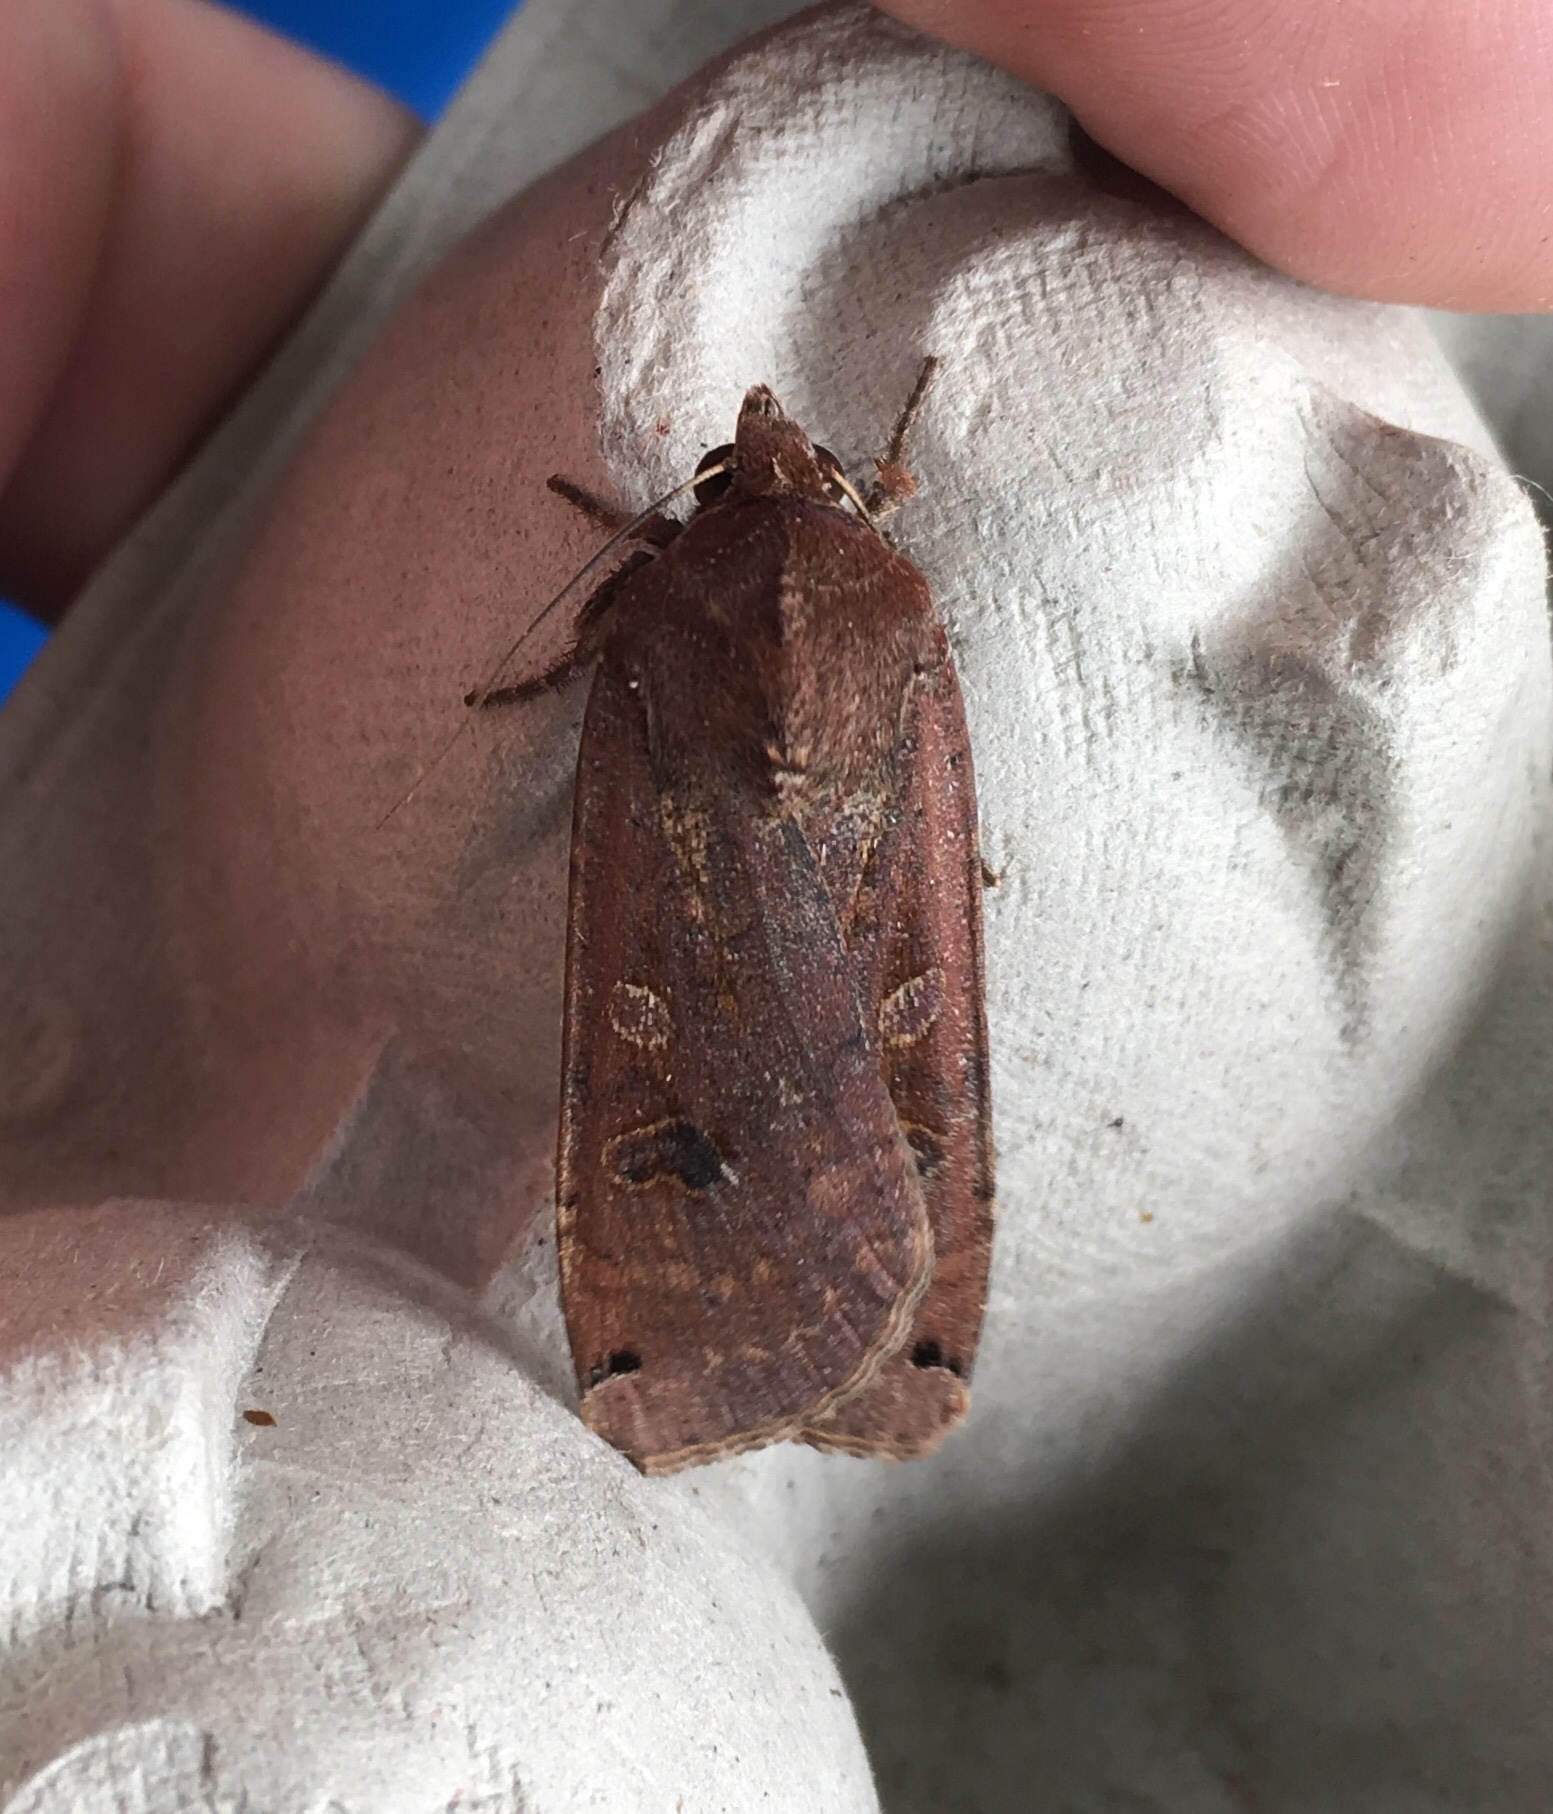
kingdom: Animalia
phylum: Arthropoda
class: Insecta
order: Lepidoptera
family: Noctuidae
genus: Noctua
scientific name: Noctua pronuba
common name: Large yellow underwing
